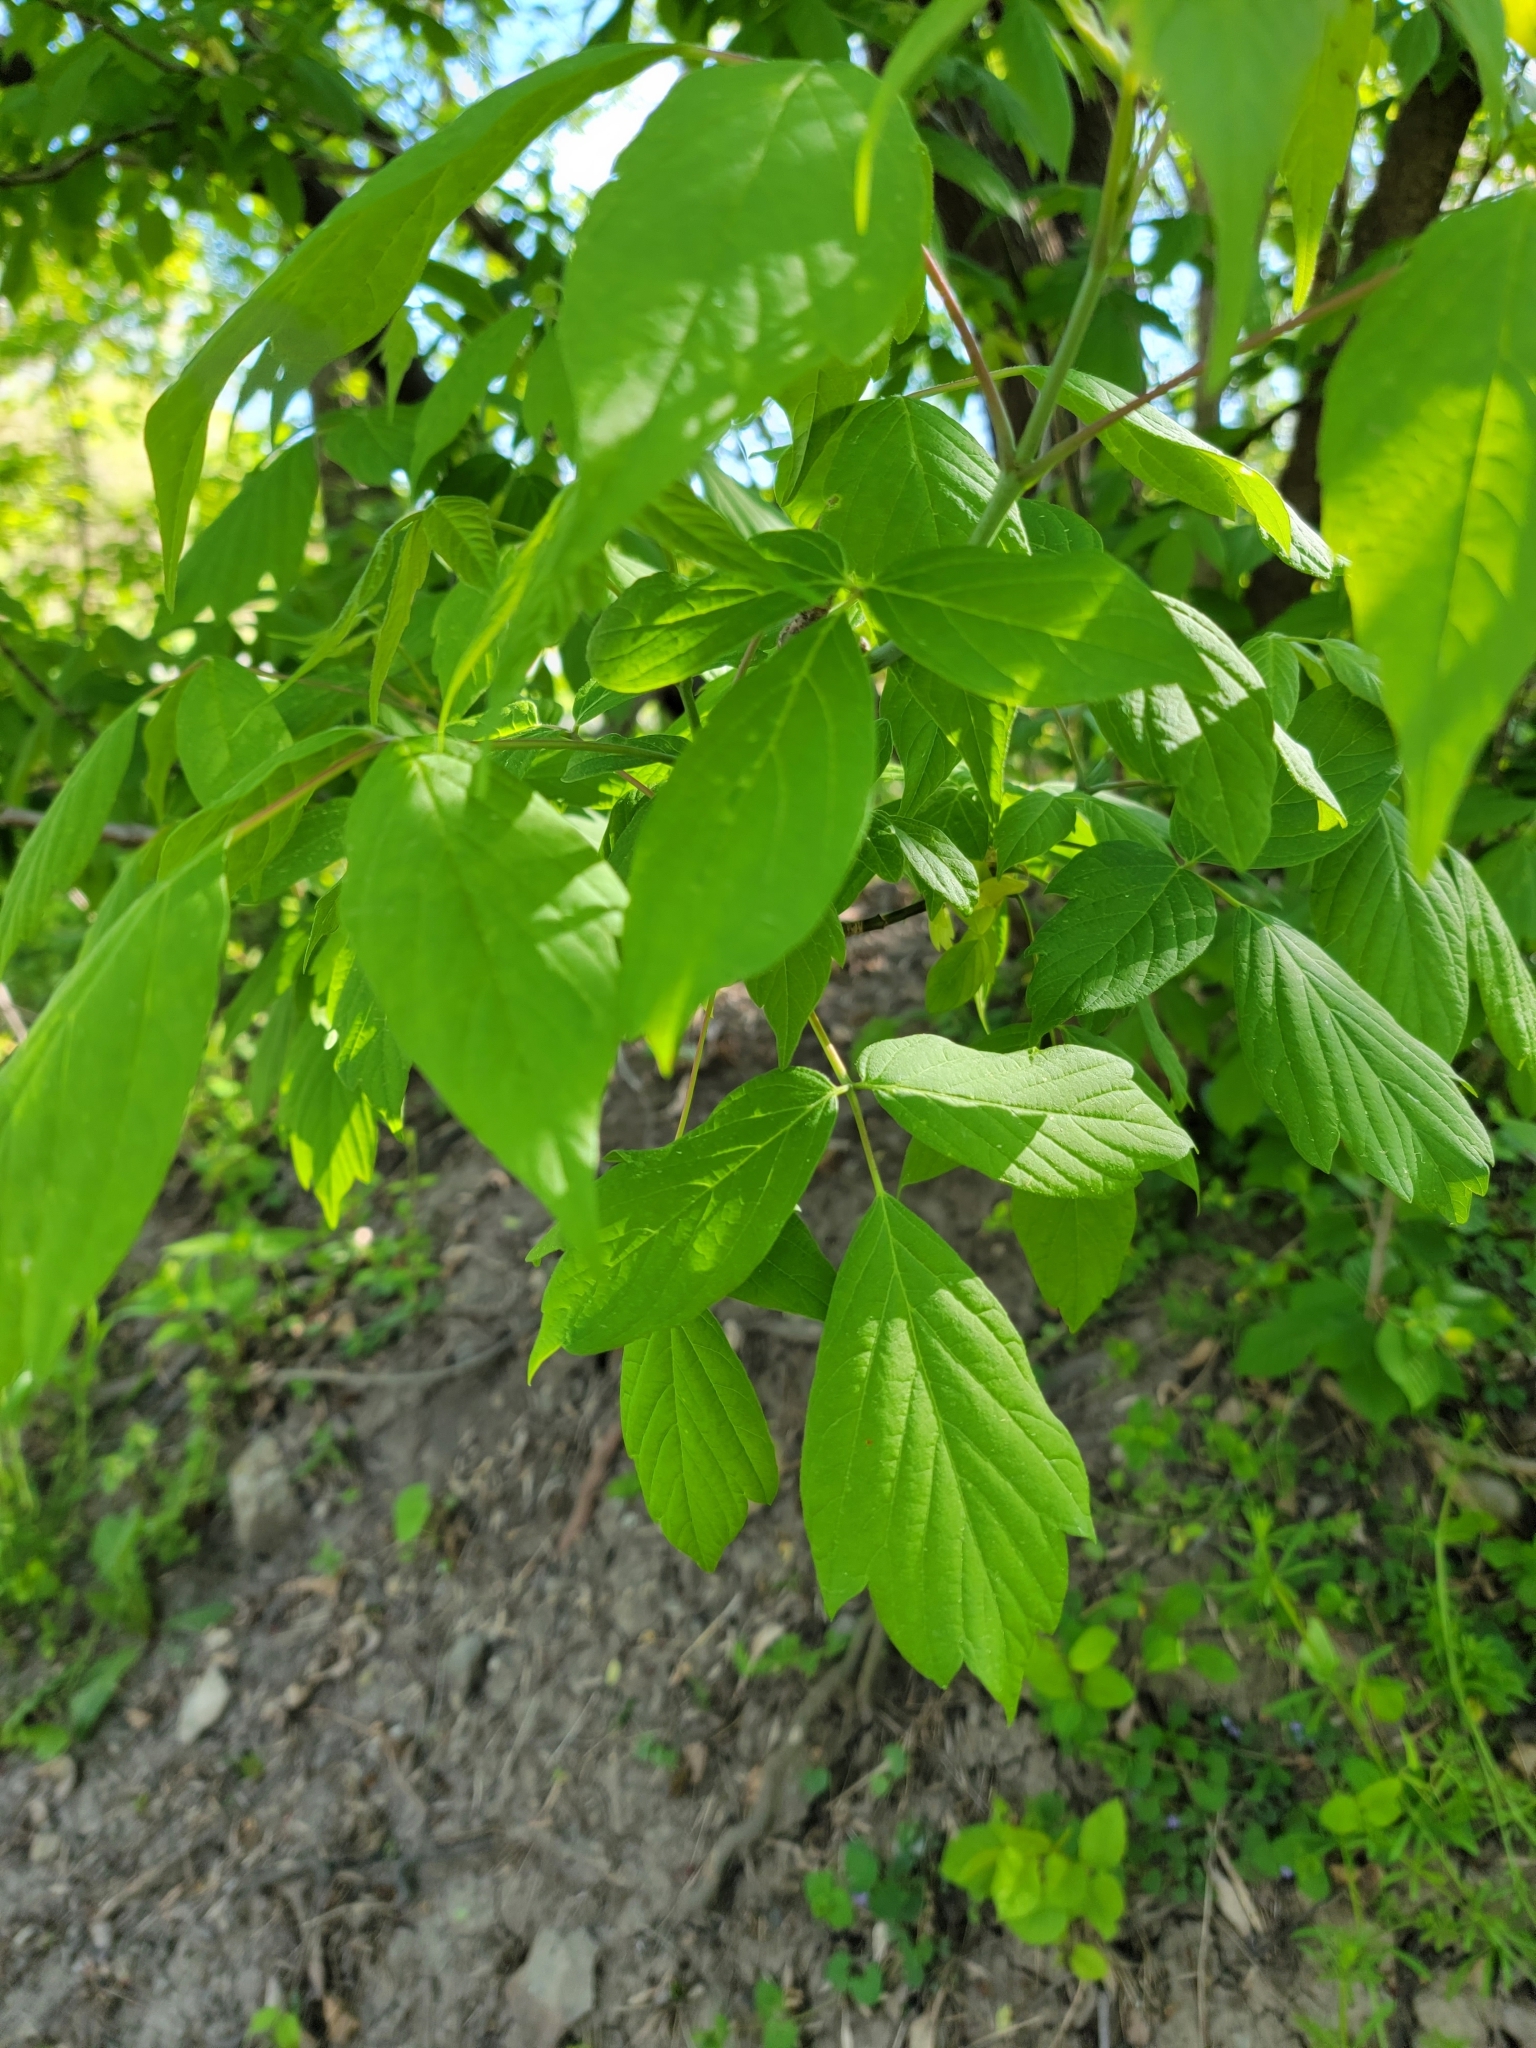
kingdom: Plantae
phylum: Tracheophyta
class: Magnoliopsida
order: Sapindales
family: Sapindaceae
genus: Acer
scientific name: Acer negundo
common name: Ashleaf maple
